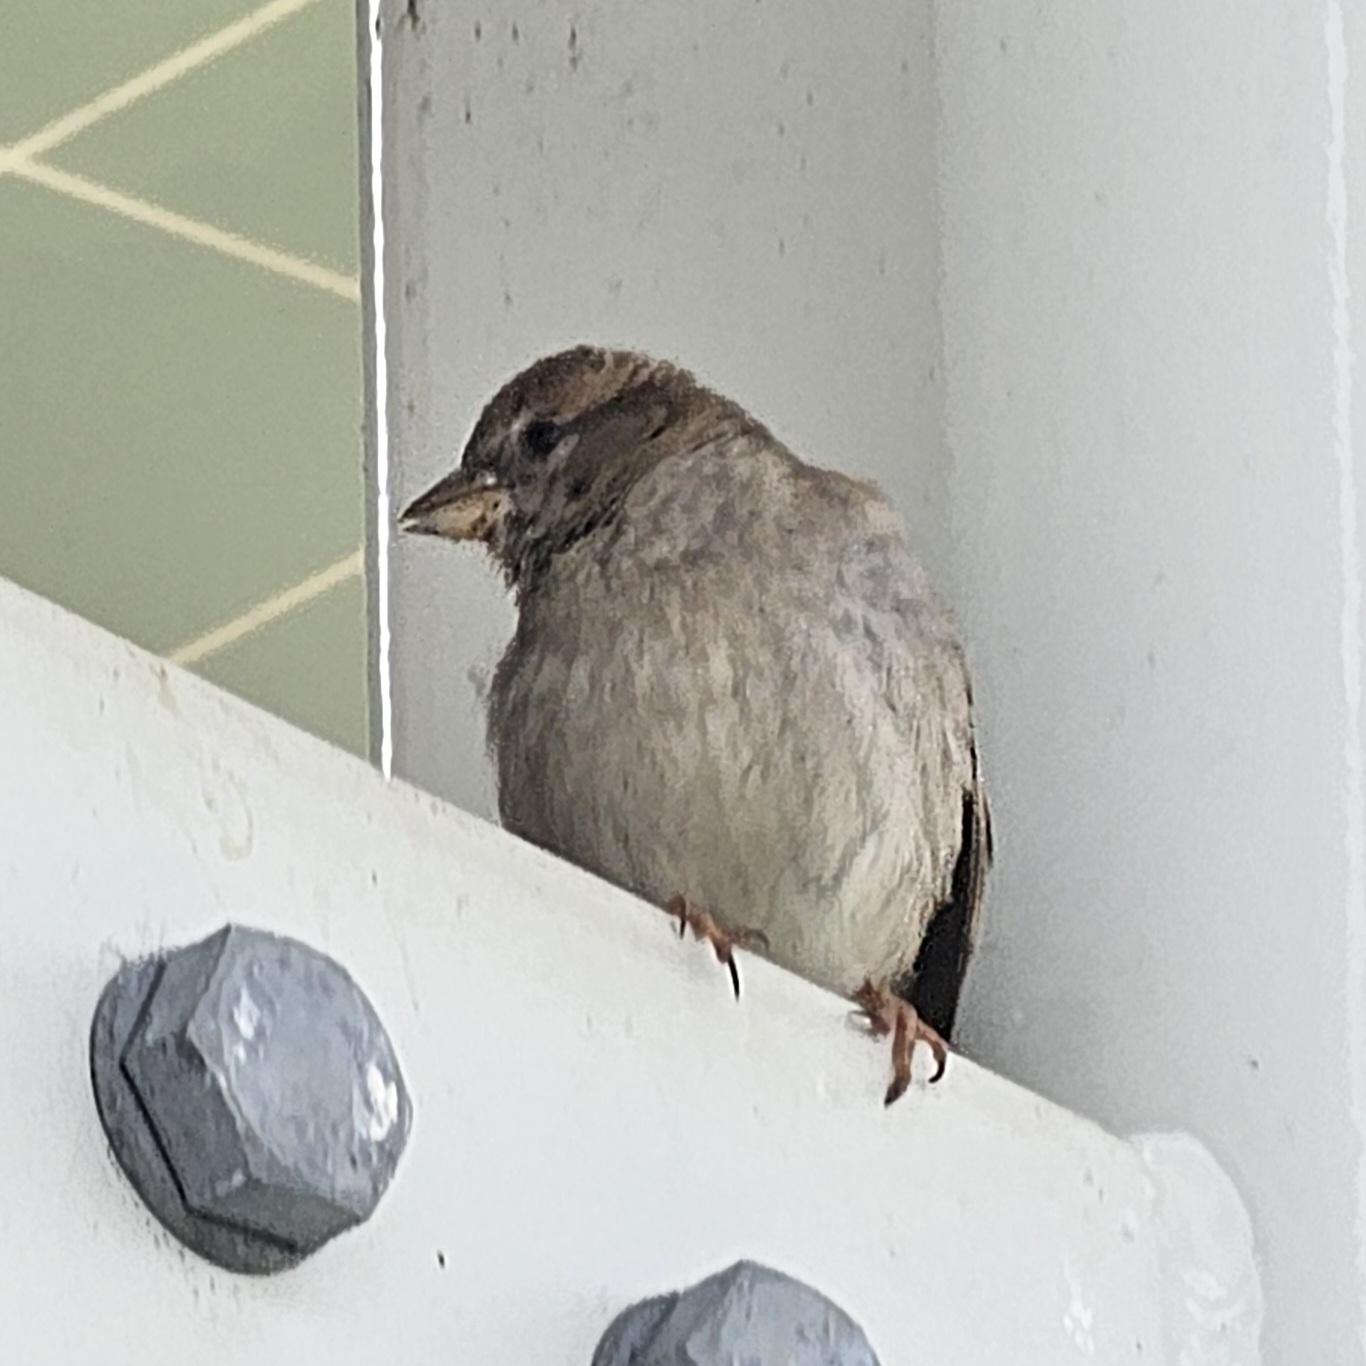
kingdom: Animalia
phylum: Chordata
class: Aves
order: Passeriformes
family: Passeridae
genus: Passer
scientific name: Passer domesticus
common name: House sparrow
